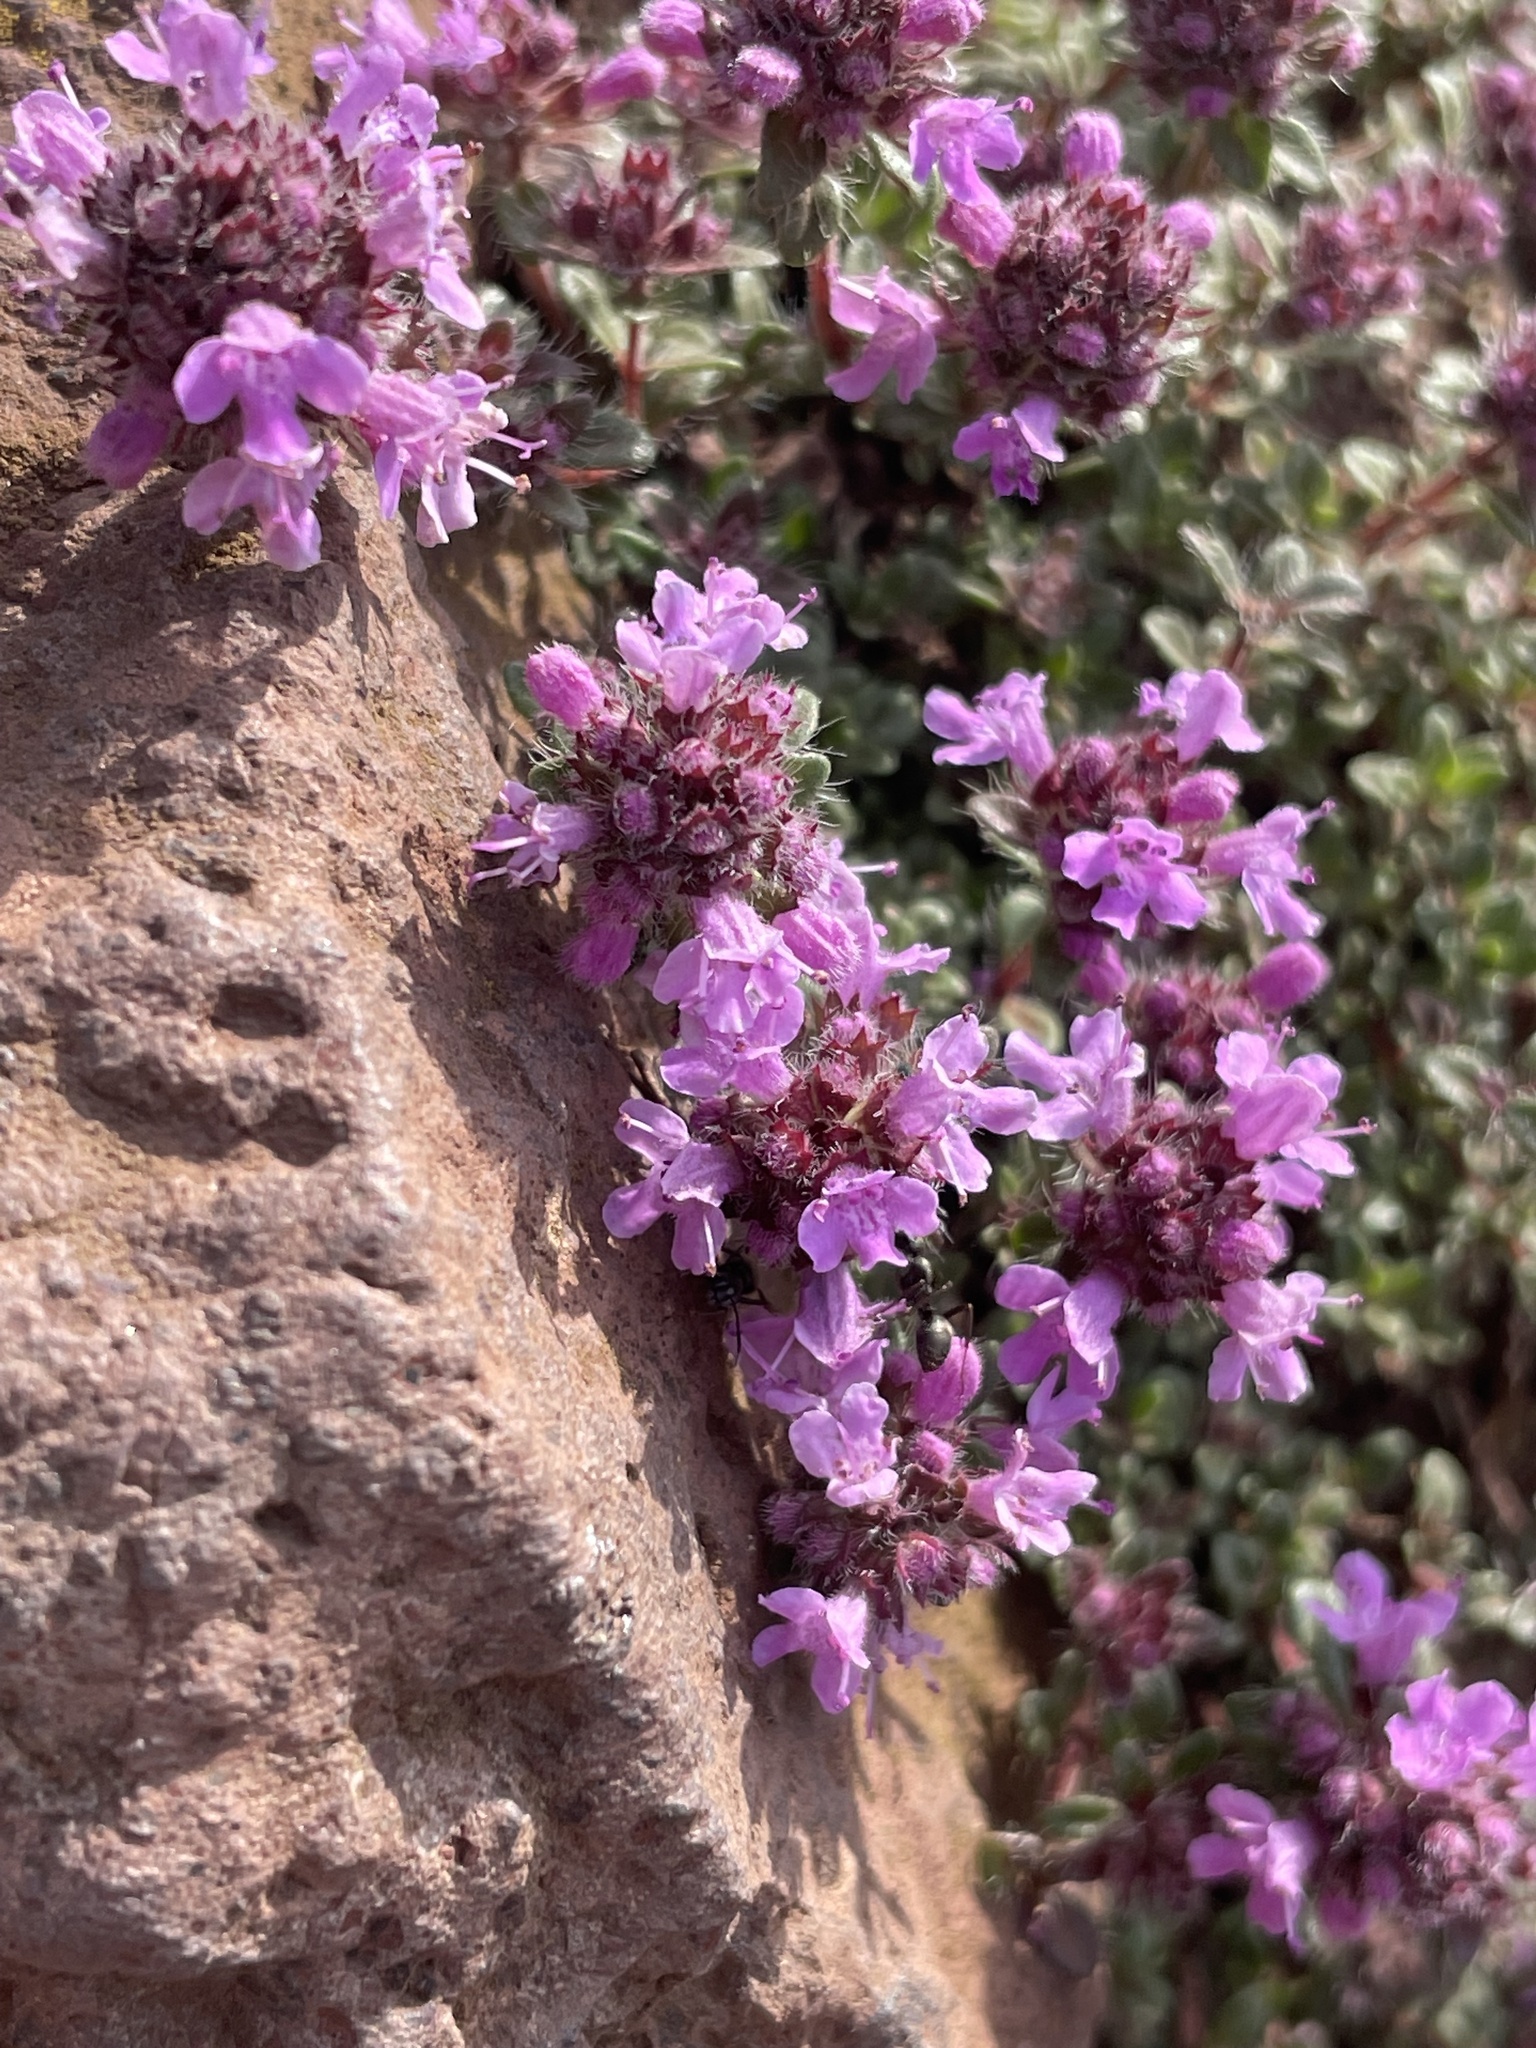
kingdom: Plantae
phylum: Tracheophyta
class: Magnoliopsida
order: Lamiales
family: Lamiaceae
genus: Thymus
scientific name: Thymus praecox
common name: Wild thyme
